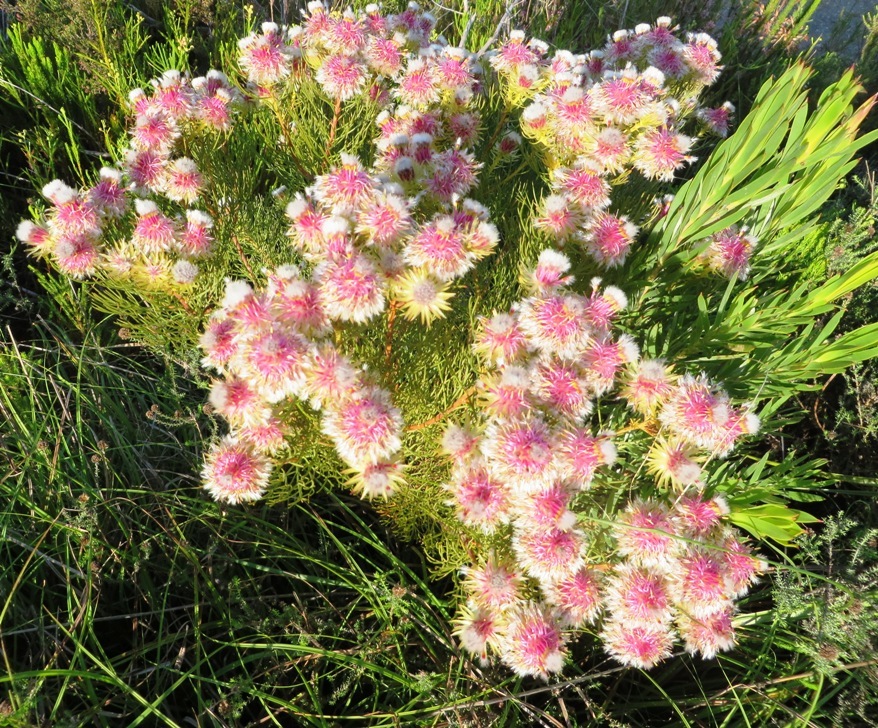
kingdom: Plantae
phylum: Tracheophyta
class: Magnoliopsida
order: Proteales
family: Proteaceae
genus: Serruria
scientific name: Serruria phylicoides
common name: Bearded spiderhead
